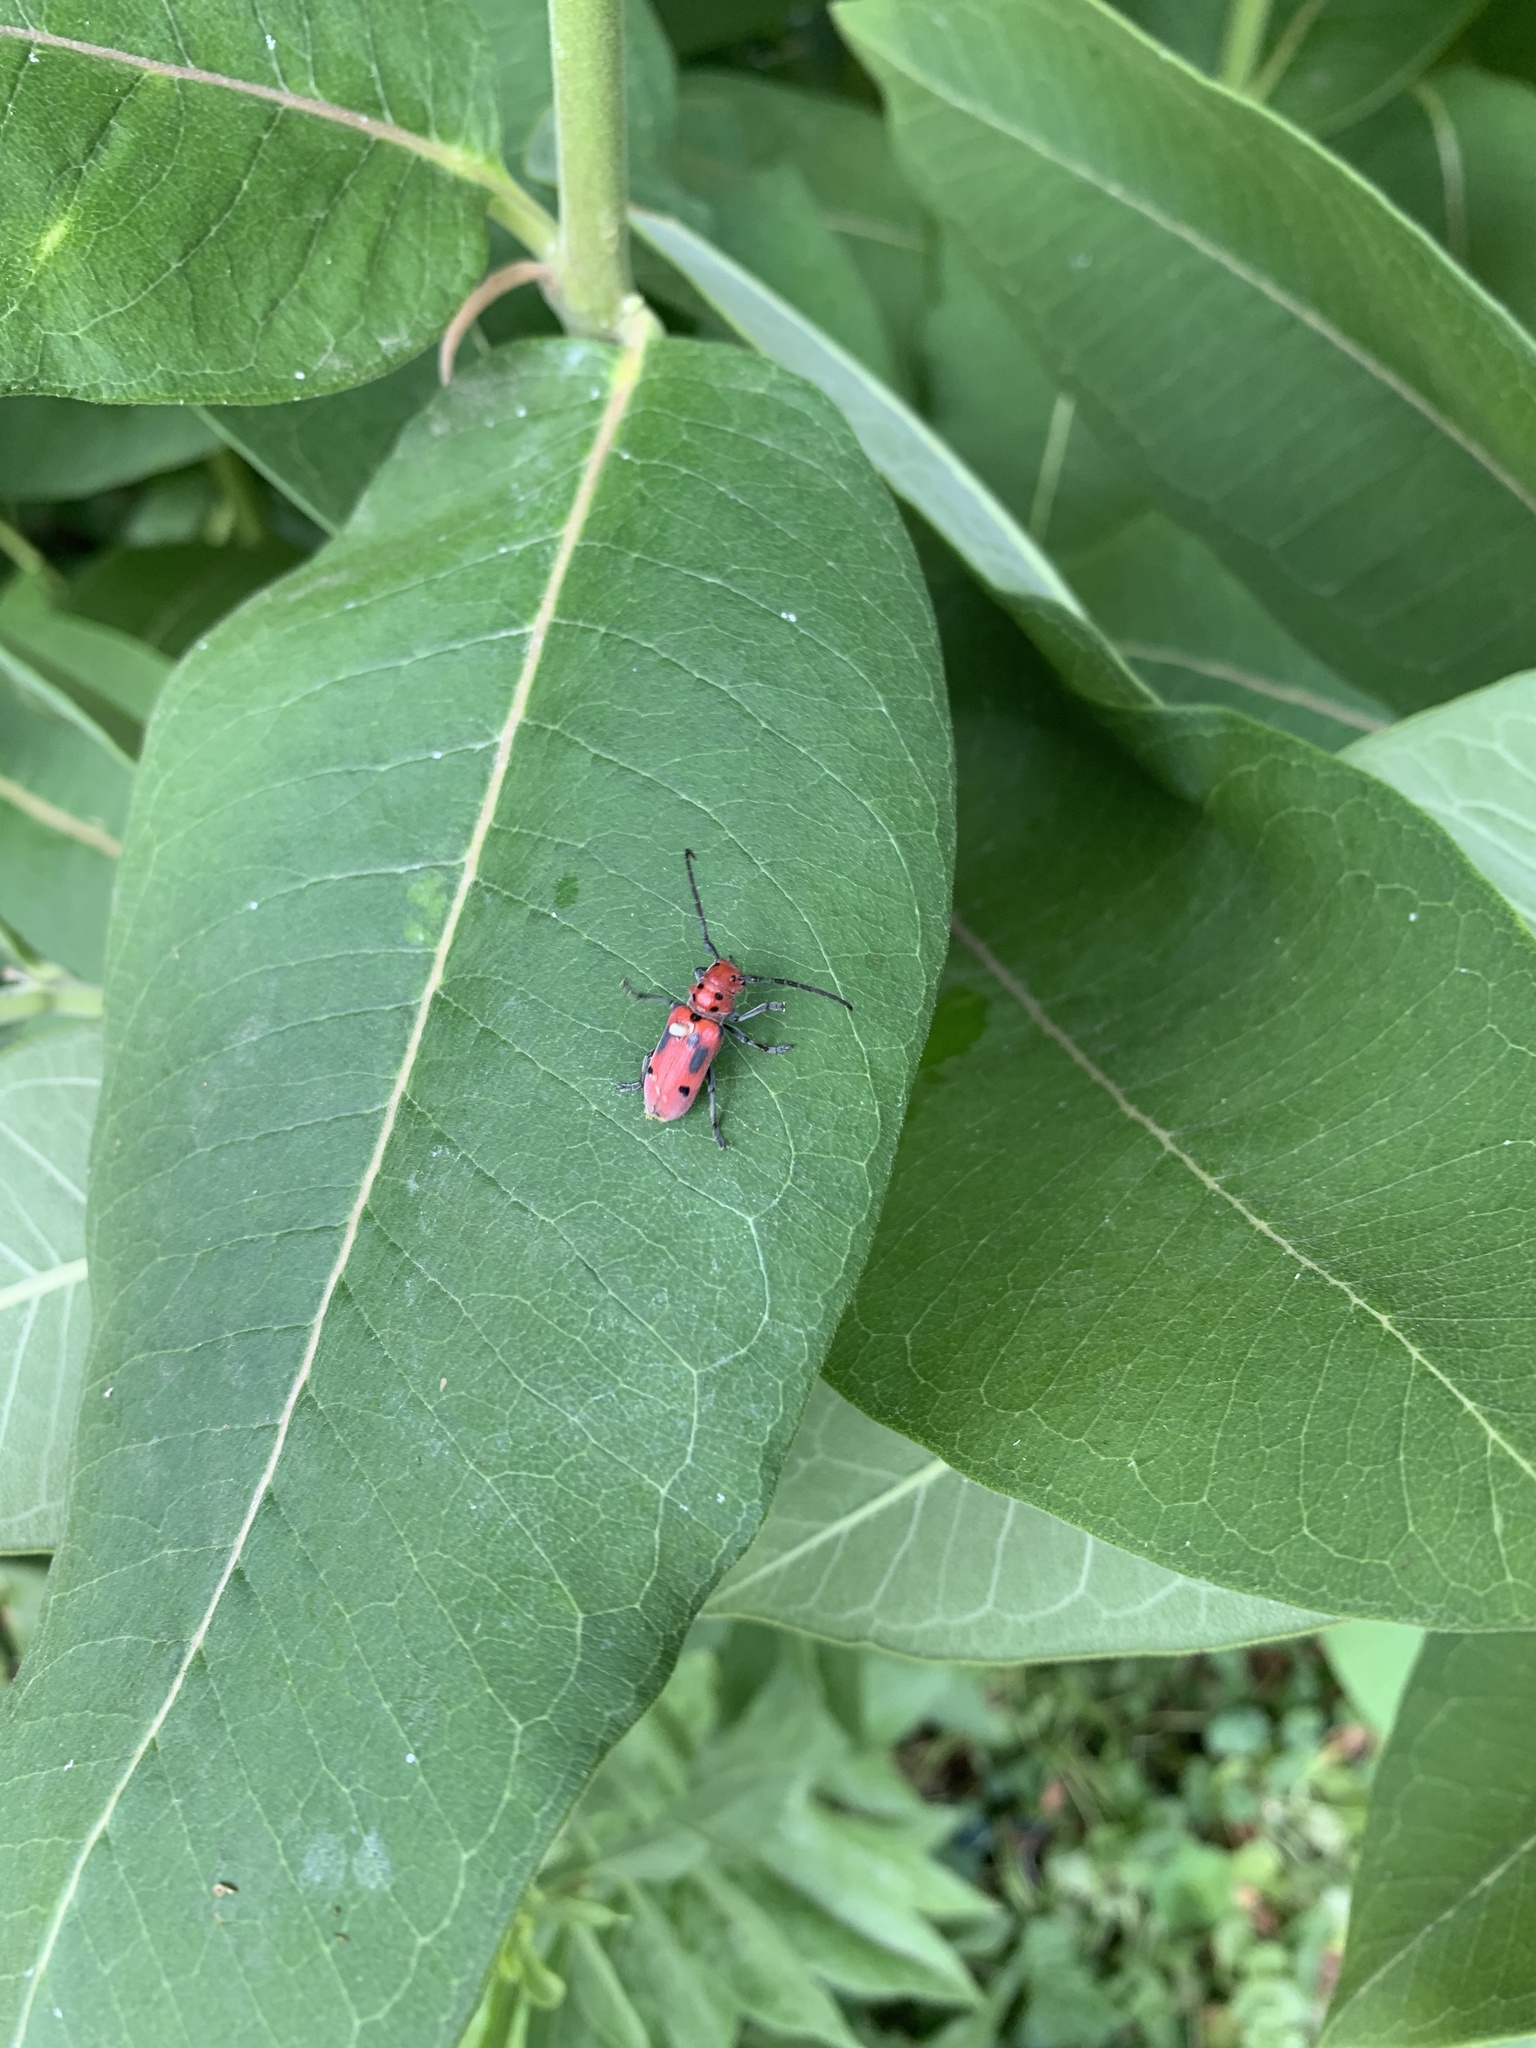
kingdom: Animalia
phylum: Arthropoda
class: Insecta
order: Coleoptera
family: Cerambycidae
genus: Tetraopes
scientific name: Tetraopes tetrophthalmus
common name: Red milkweed beetle
